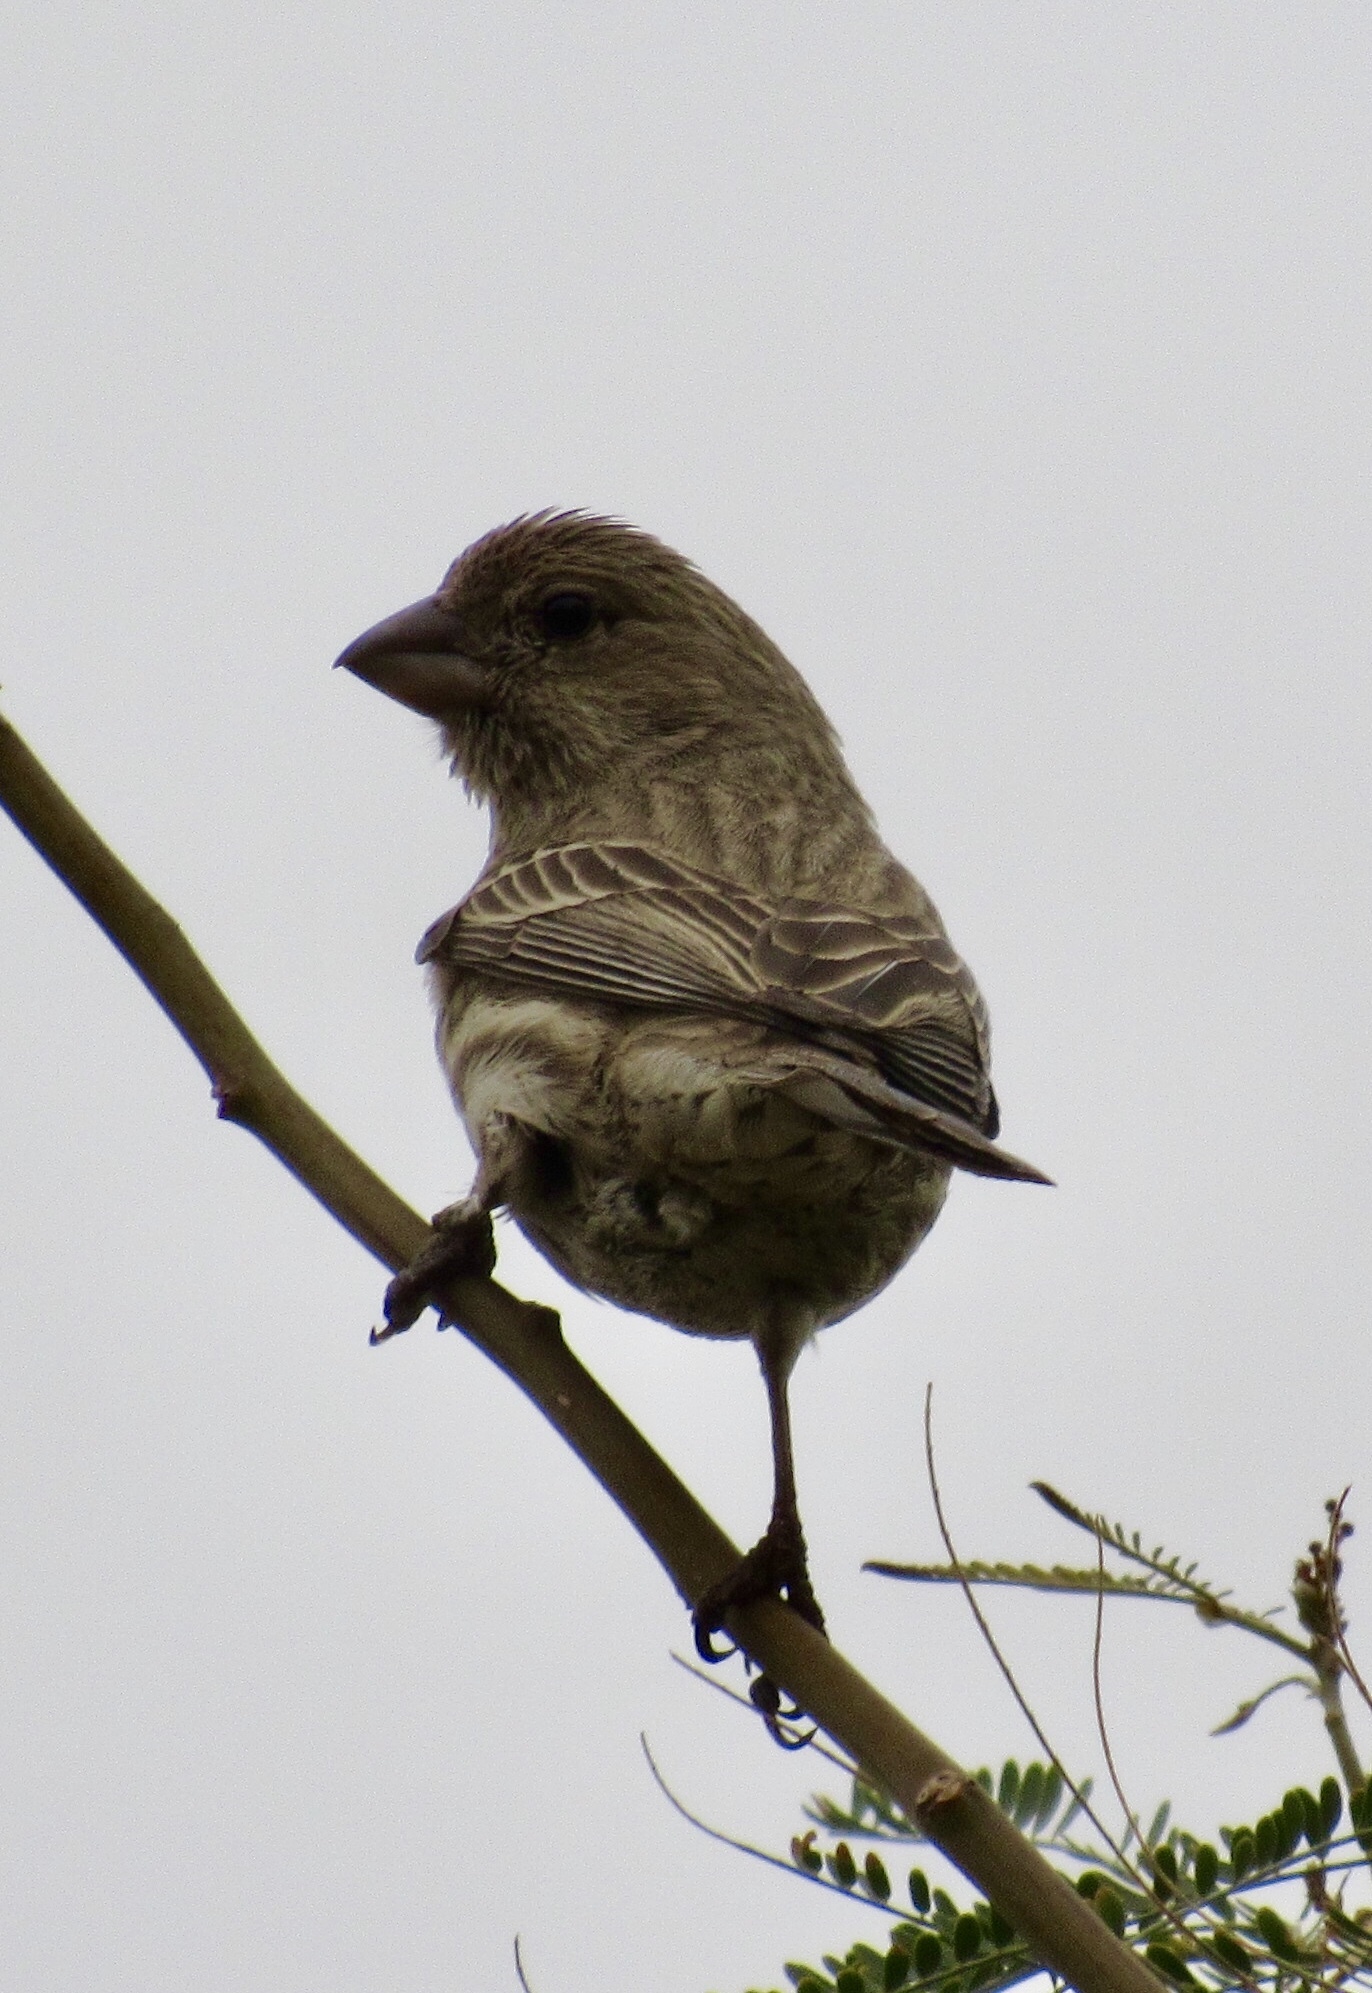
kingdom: Animalia
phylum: Chordata
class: Aves
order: Passeriformes
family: Fringillidae
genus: Haemorhous
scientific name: Haemorhous mexicanus
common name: House finch
